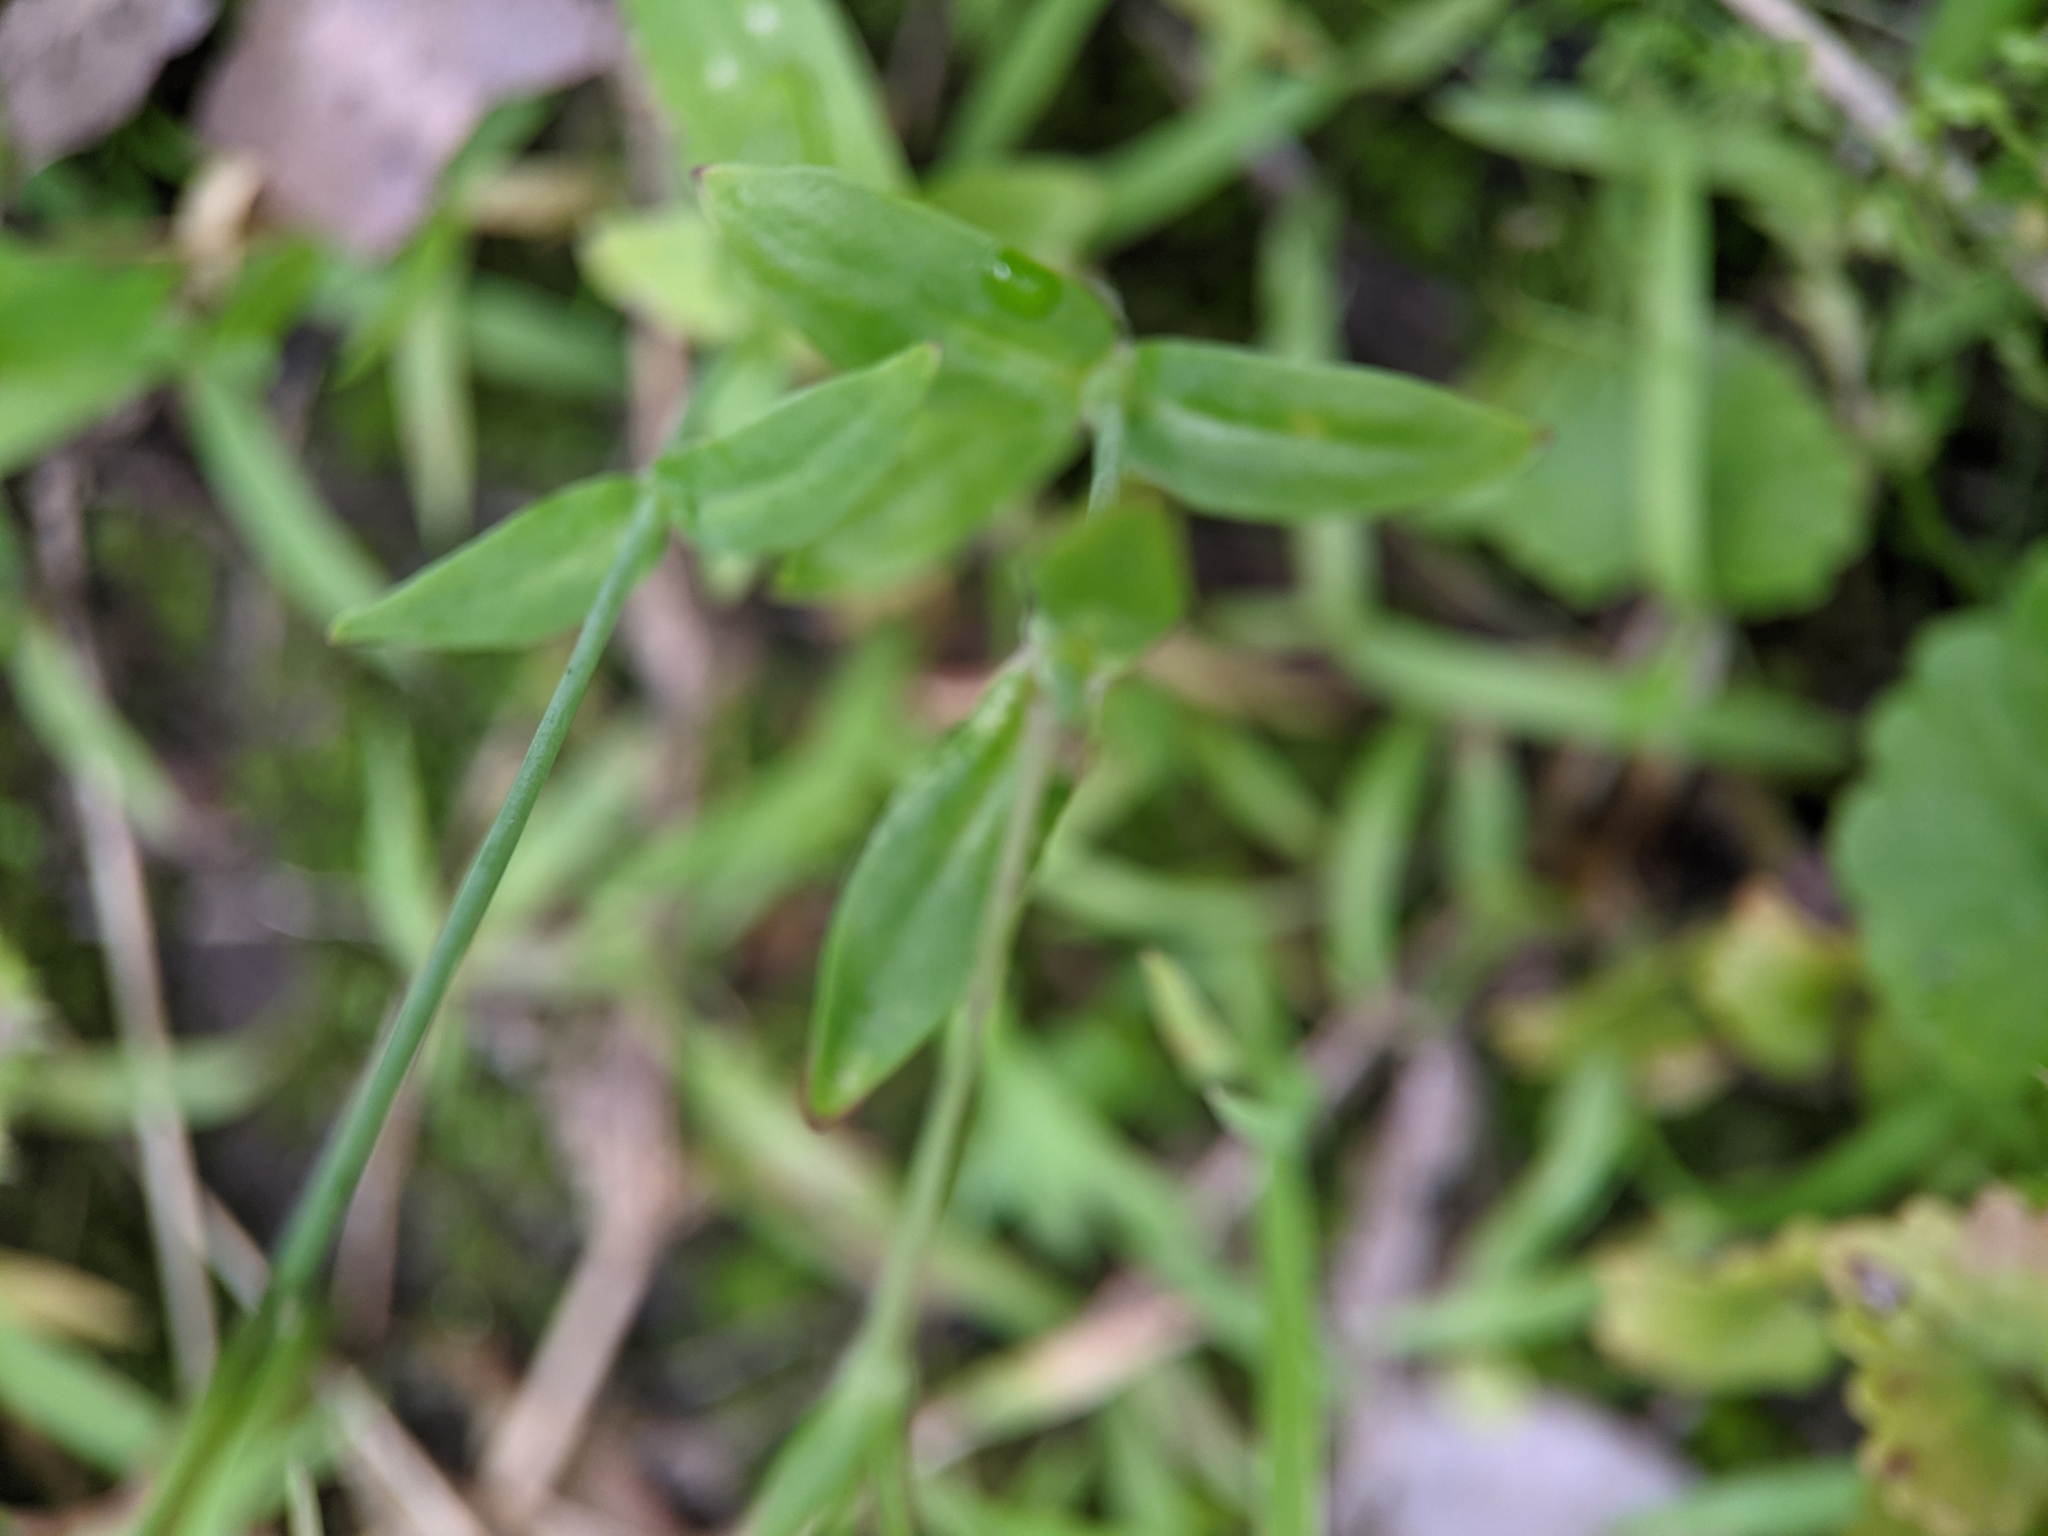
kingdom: Plantae
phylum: Tracheophyta
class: Magnoliopsida
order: Caryophyllales
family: Caryophyllaceae
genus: Atocion
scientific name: Atocion armeria
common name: Sweet william catchfly
